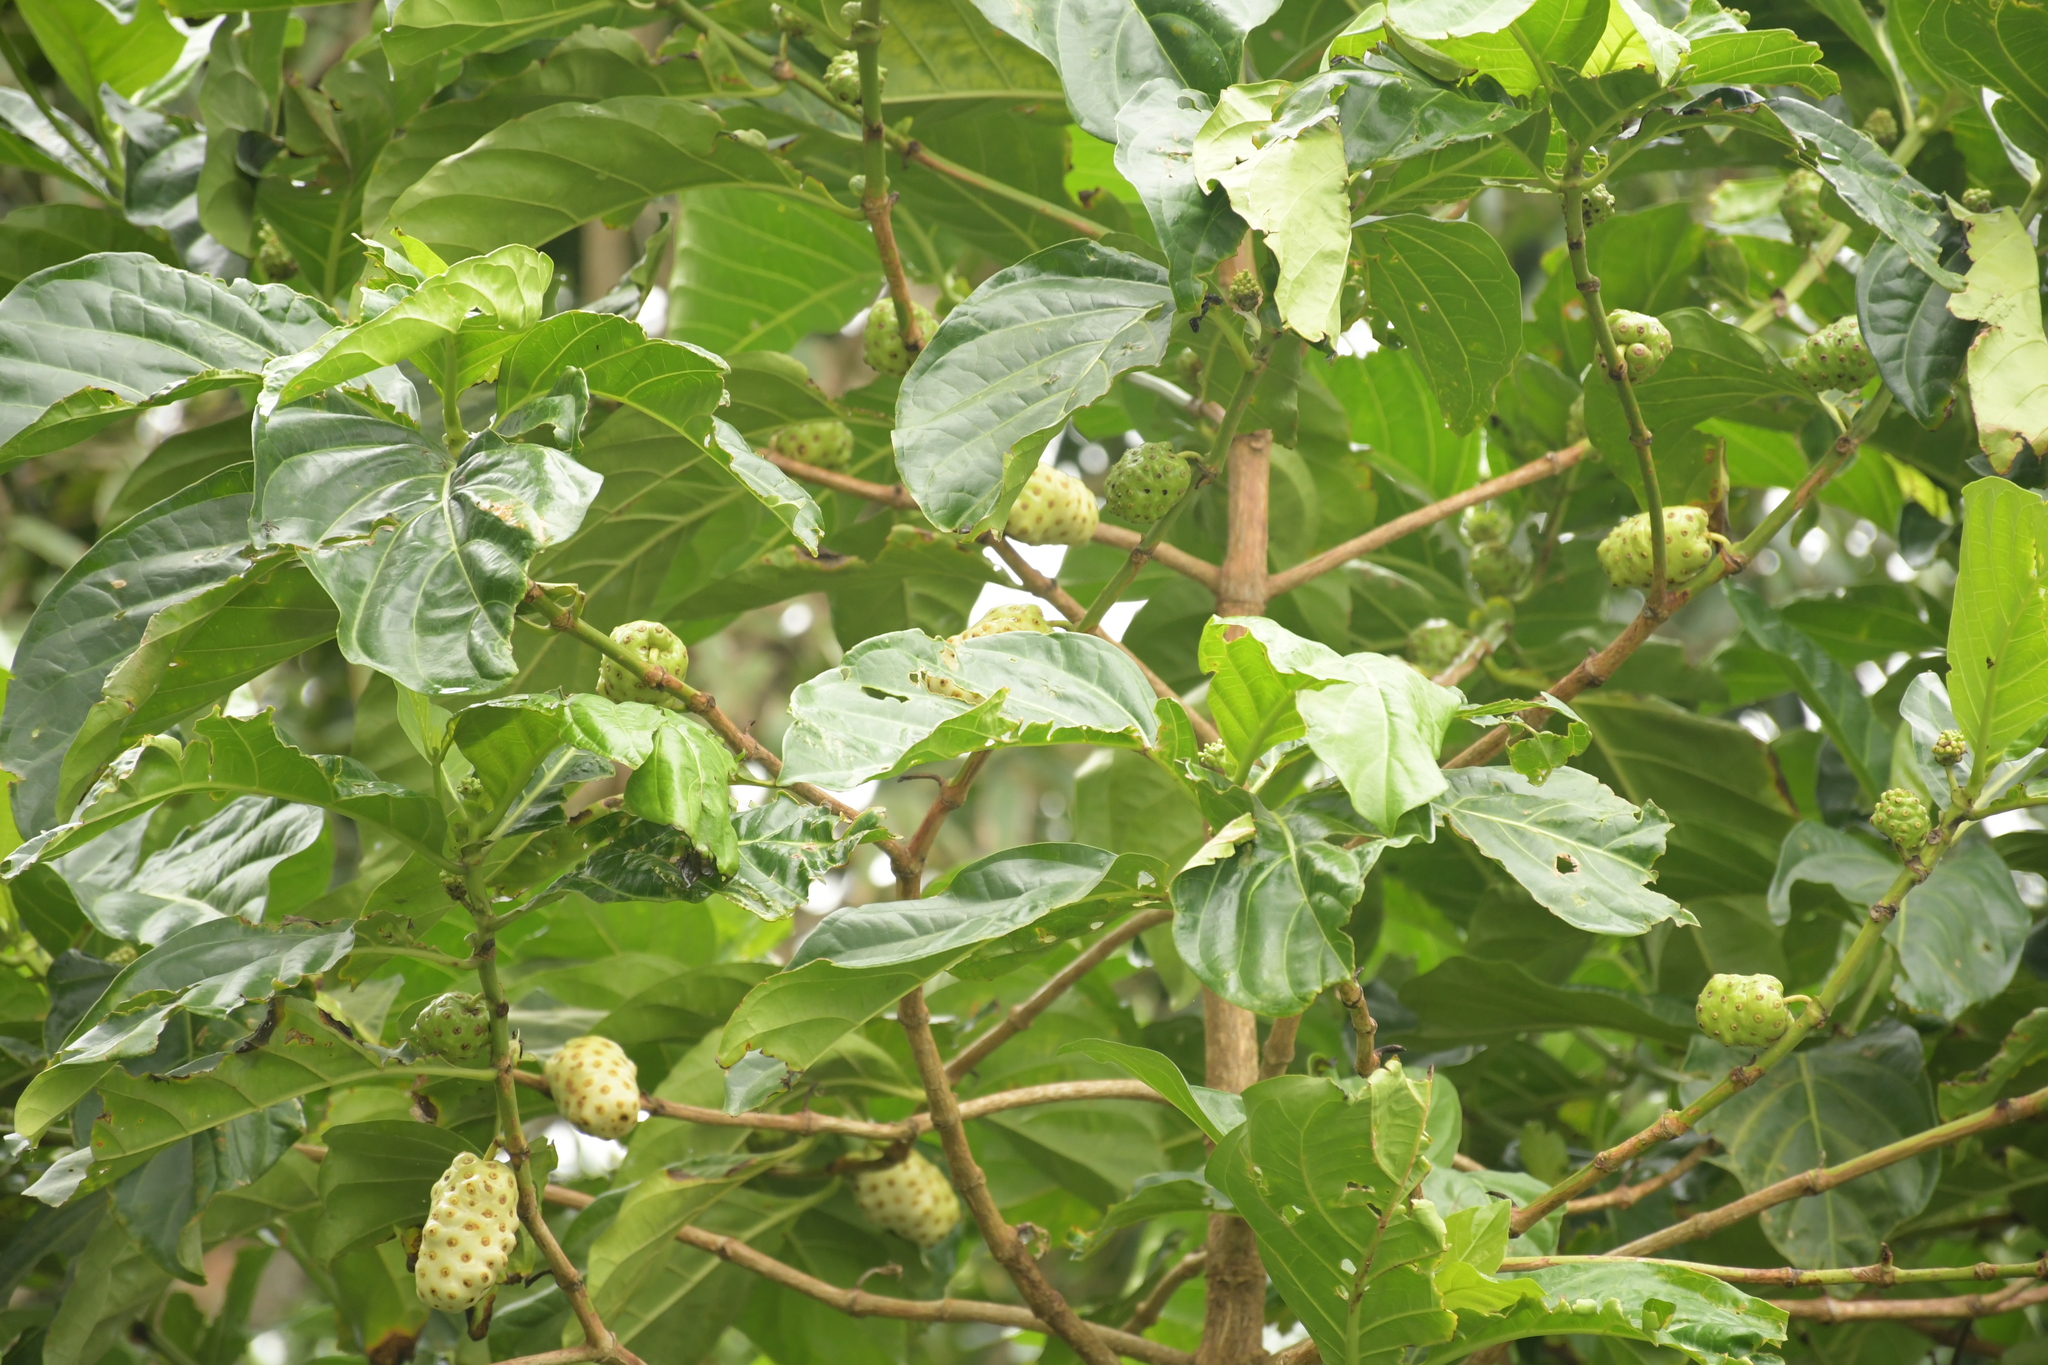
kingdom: Plantae
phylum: Tracheophyta
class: Magnoliopsida
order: Gentianales
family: Rubiaceae
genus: Morinda
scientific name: Morinda citrifolia
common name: Indian-mulberry
